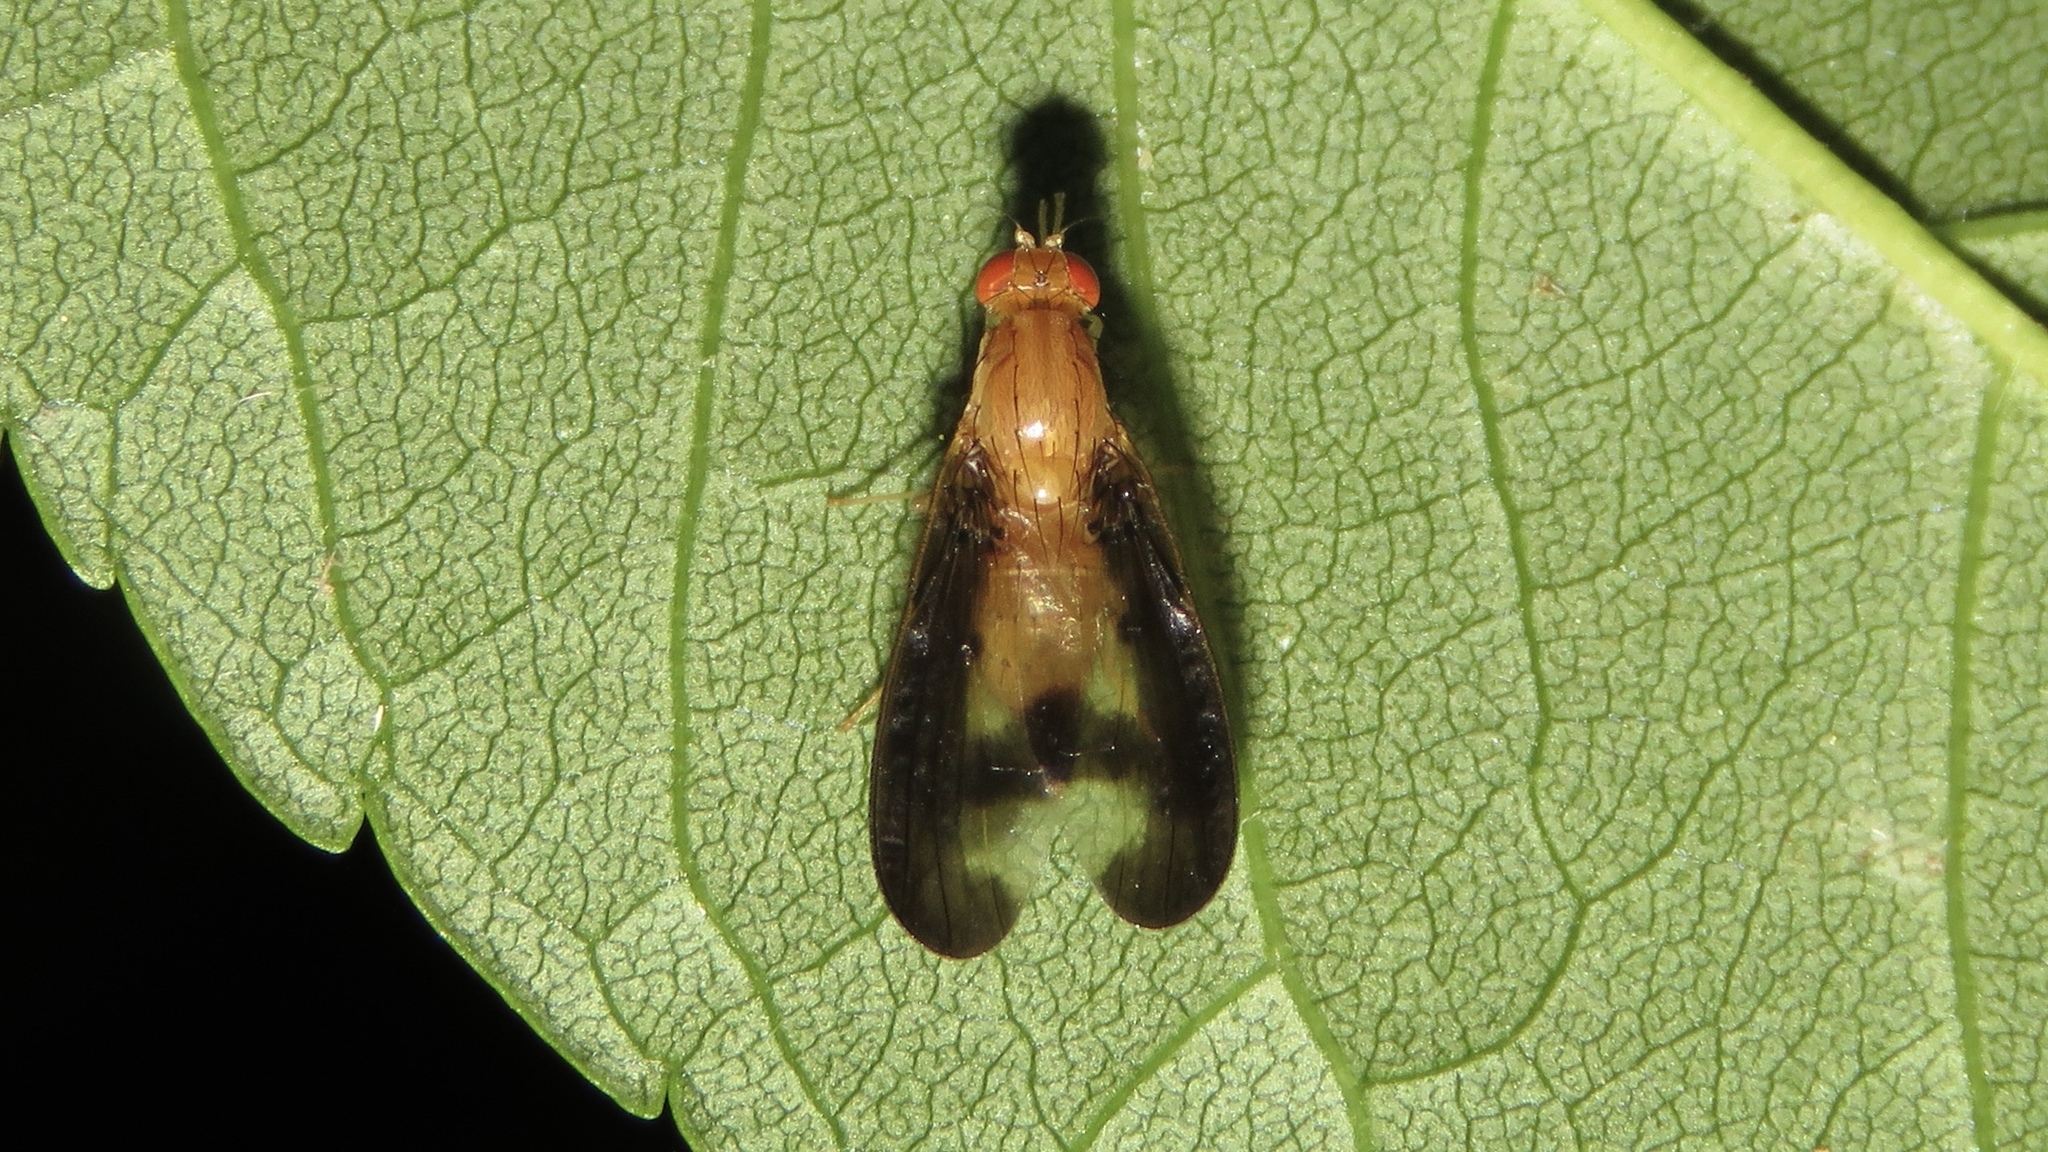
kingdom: Animalia
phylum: Arthropoda
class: Insecta
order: Diptera
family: Pallopteridae
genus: Toxonevra
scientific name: Toxonevra superba
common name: Antlered flutter fly
